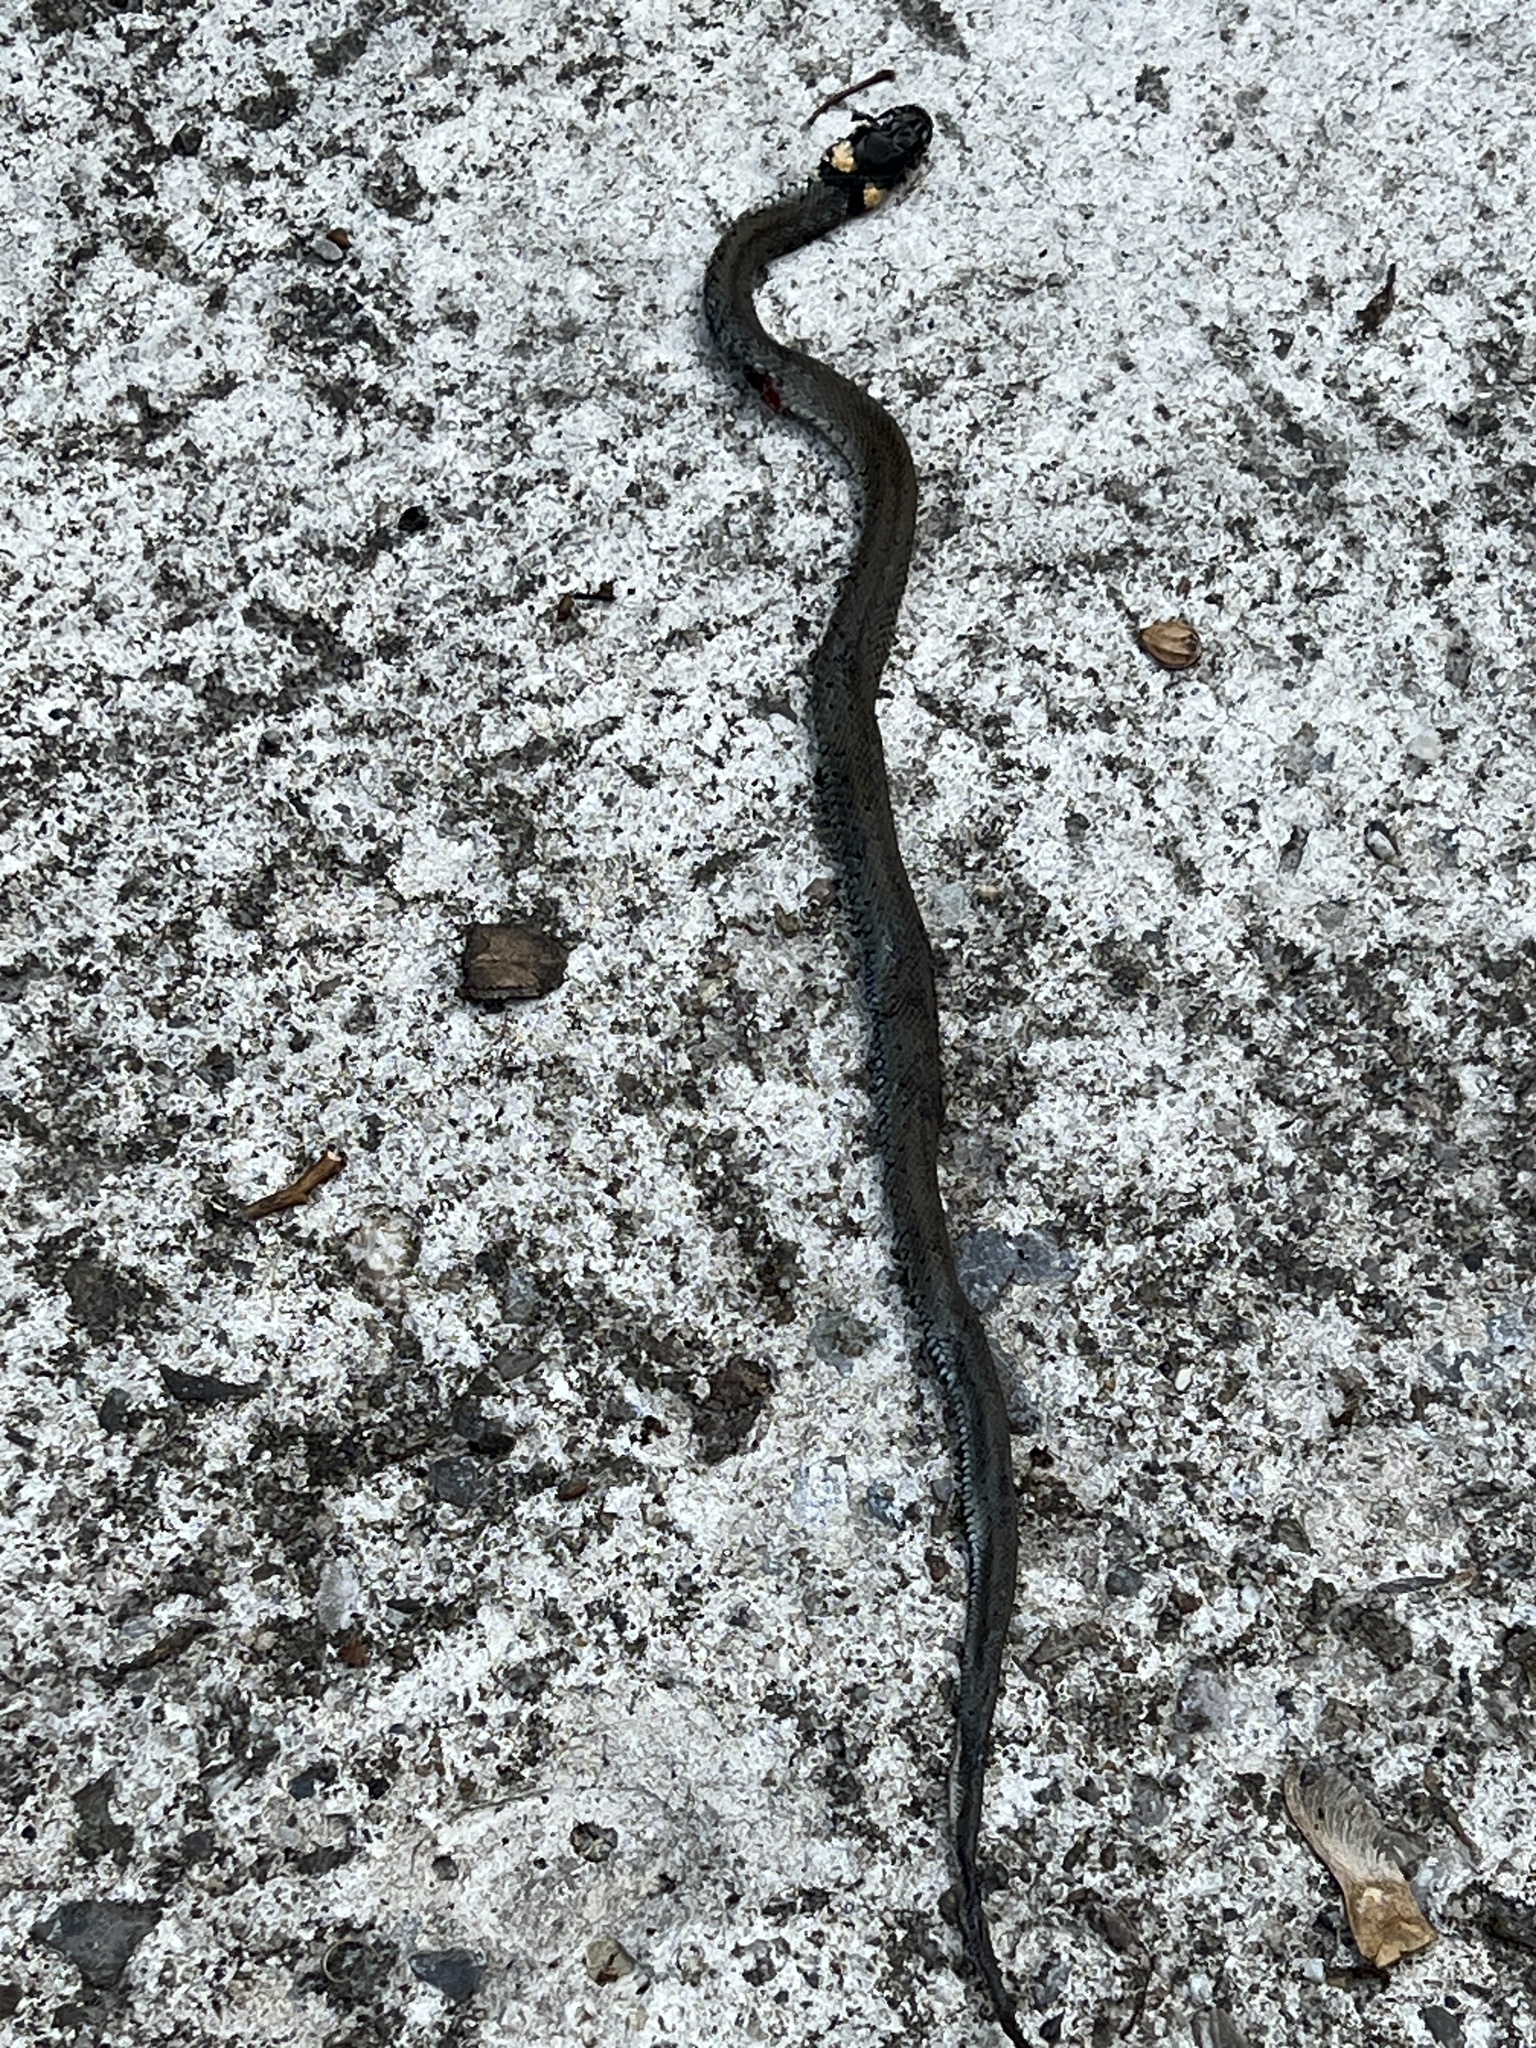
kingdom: Animalia
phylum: Chordata
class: Squamata
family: Colubridae
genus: Natrix
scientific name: Natrix natrix
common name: Grass snake
